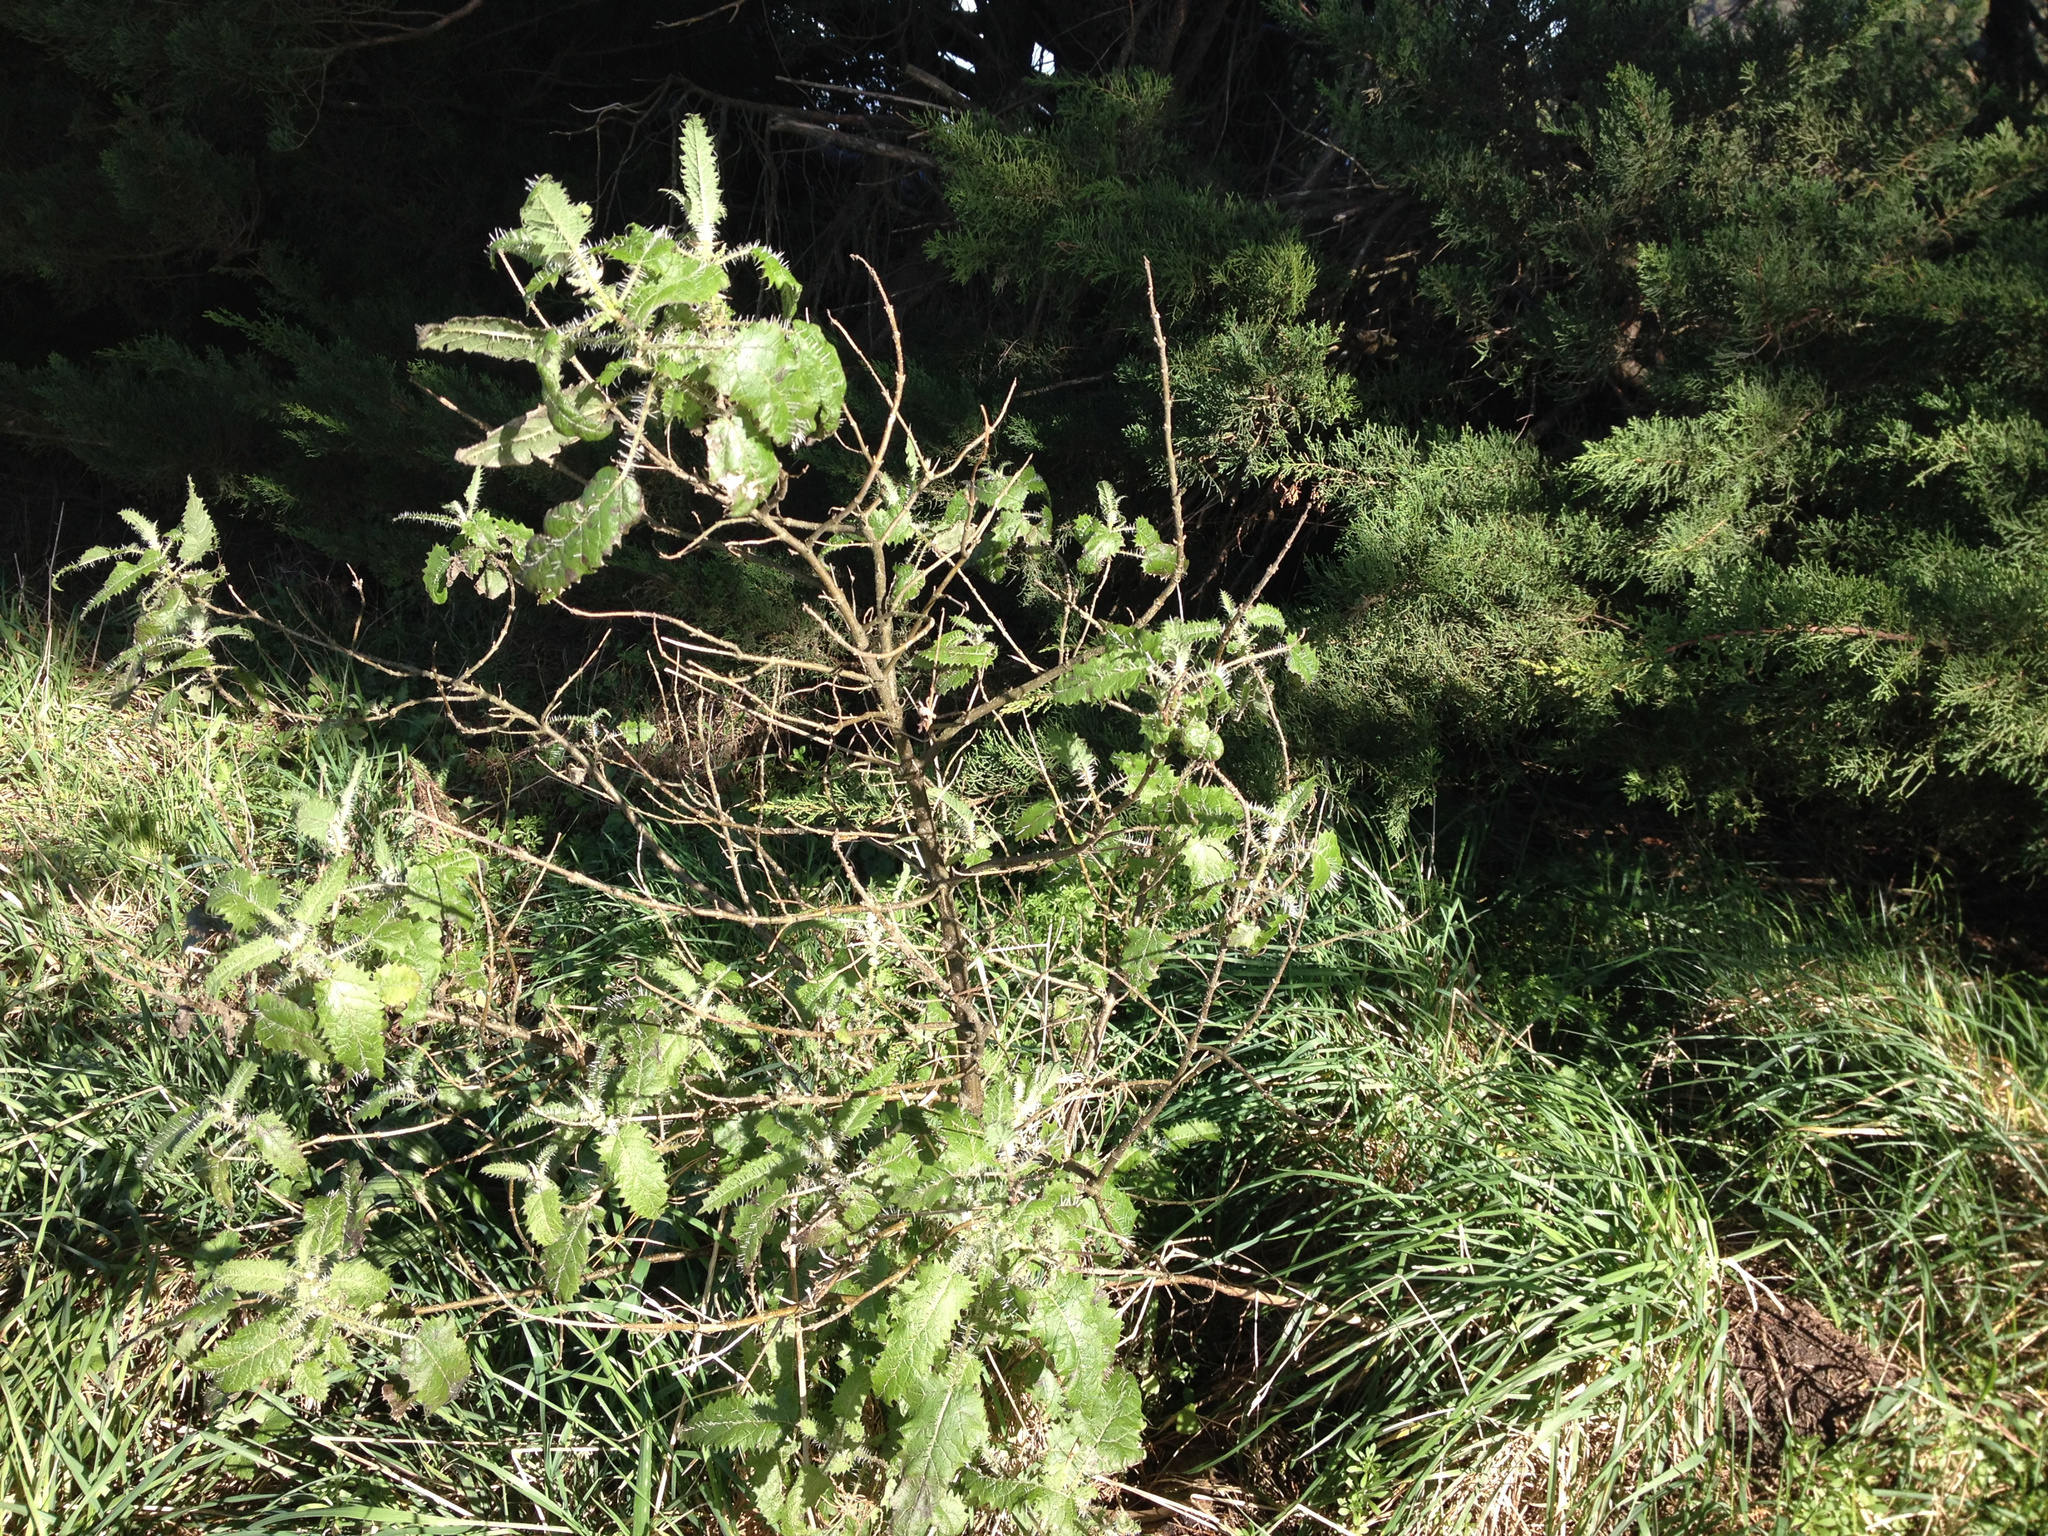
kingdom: Plantae
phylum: Tracheophyta
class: Magnoliopsida
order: Rosales
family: Urticaceae
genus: Urtica
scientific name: Urtica ferox
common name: Tree nettle
